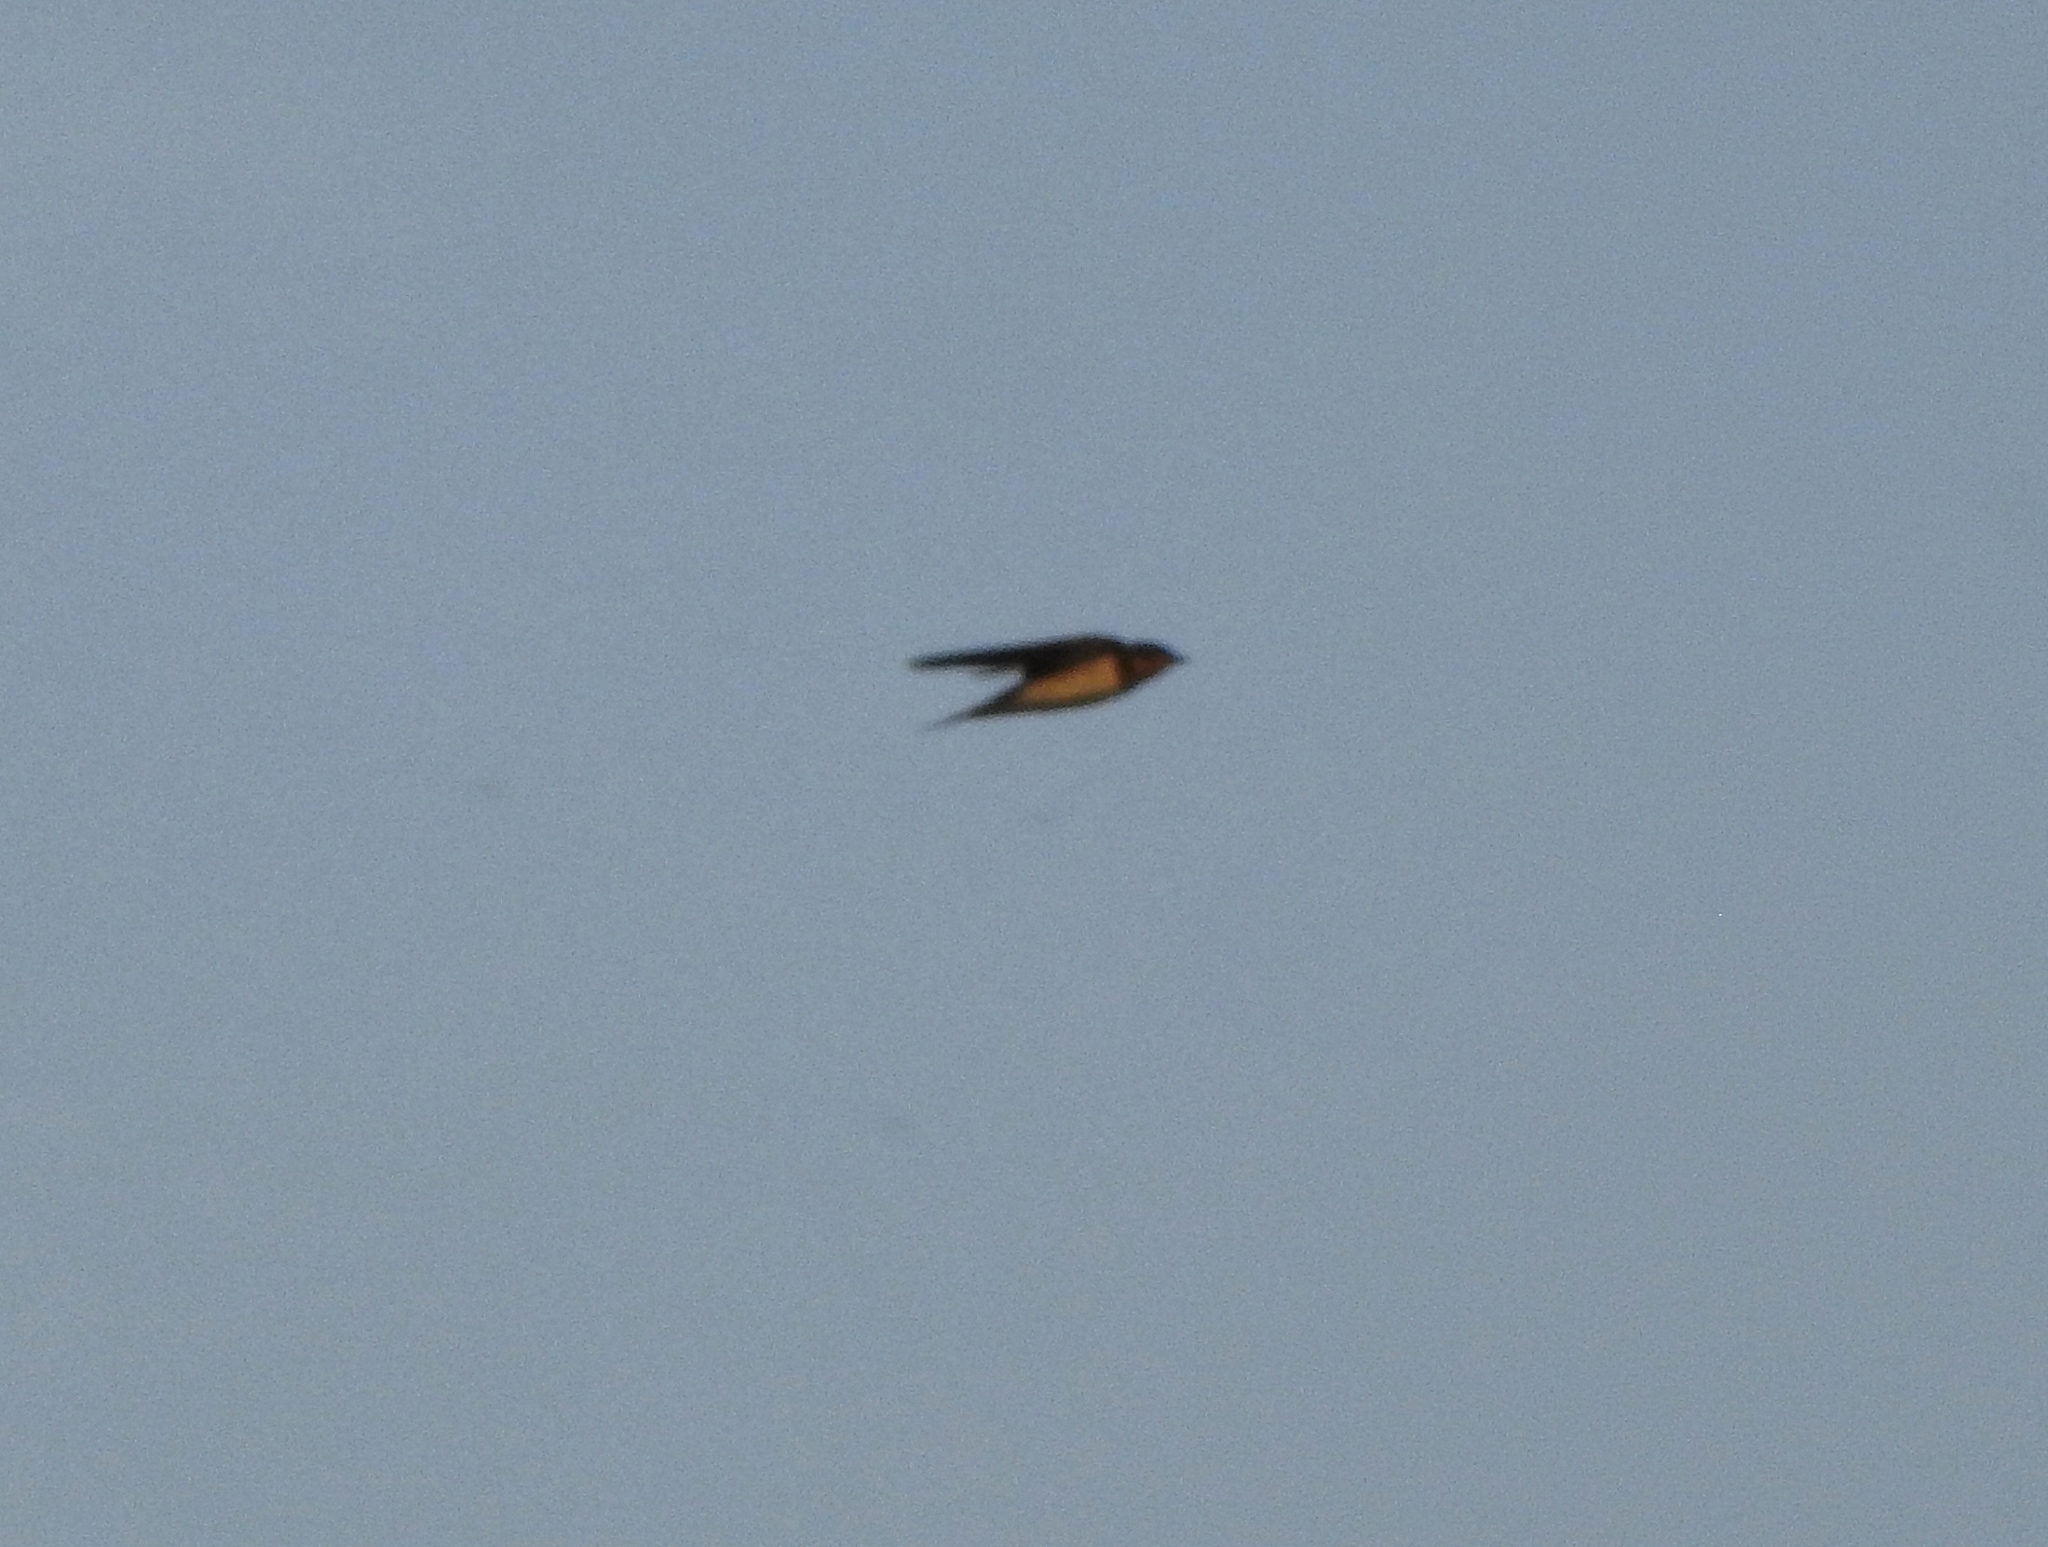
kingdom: Animalia
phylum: Chordata
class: Aves
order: Passeriformes
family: Hirundinidae
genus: Hirundo
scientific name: Hirundo rustica
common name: Barn swallow
